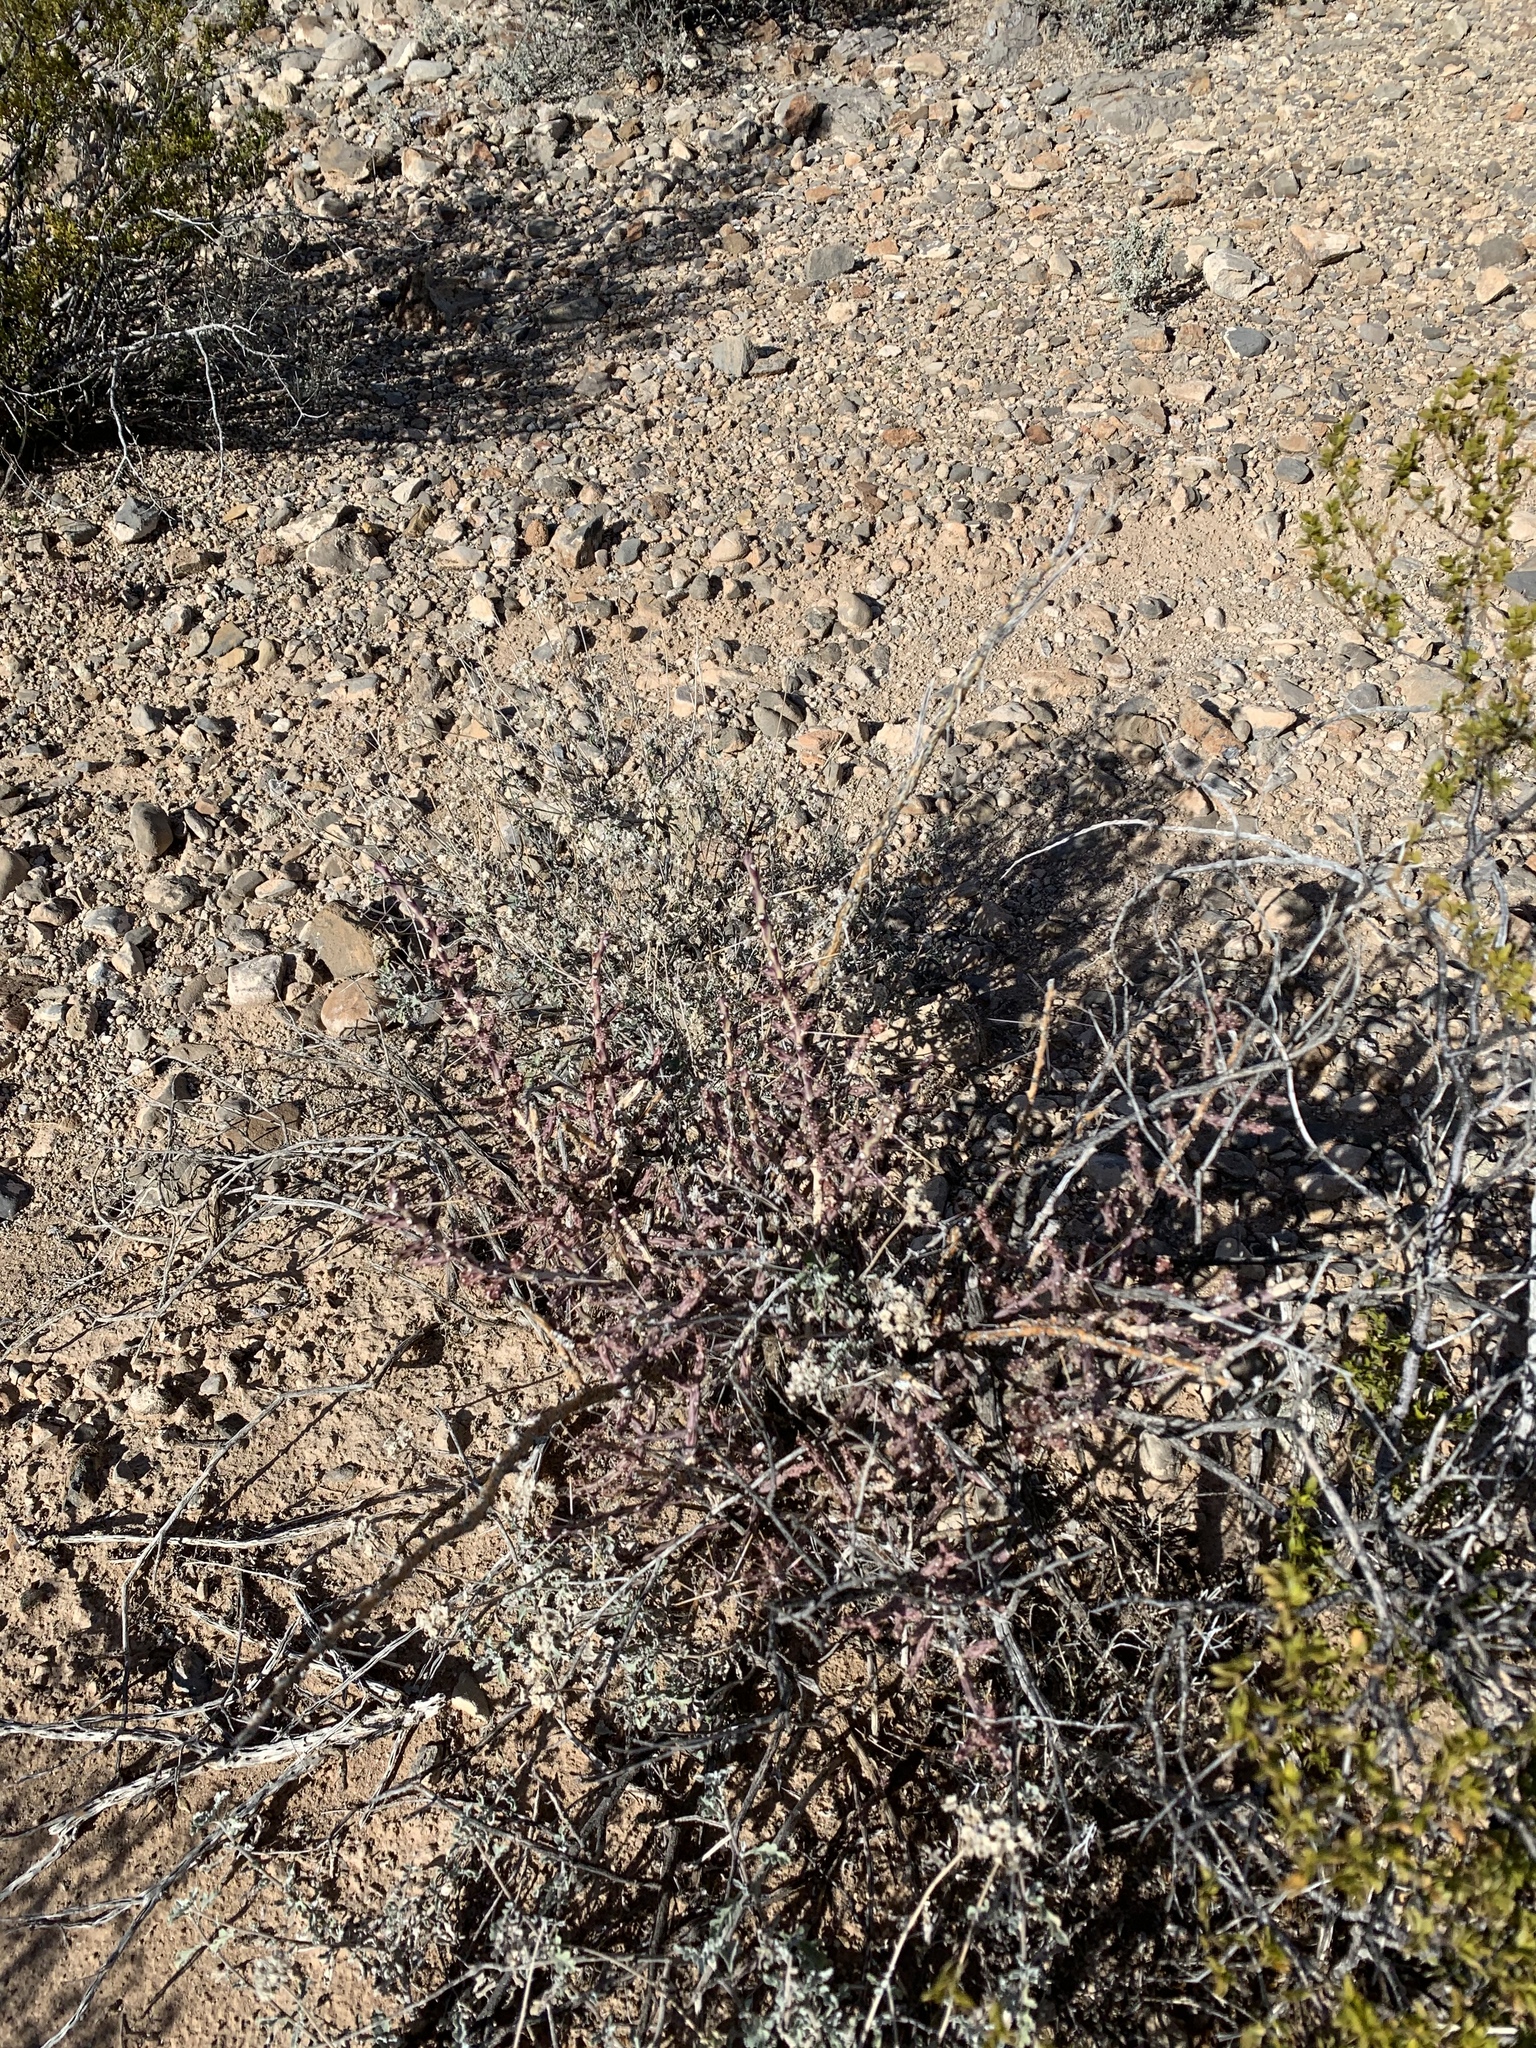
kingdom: Plantae
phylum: Tracheophyta
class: Magnoliopsida
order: Caryophyllales
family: Cactaceae
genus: Cylindropuntia
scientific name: Cylindropuntia leptocaulis
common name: Christmas cactus
